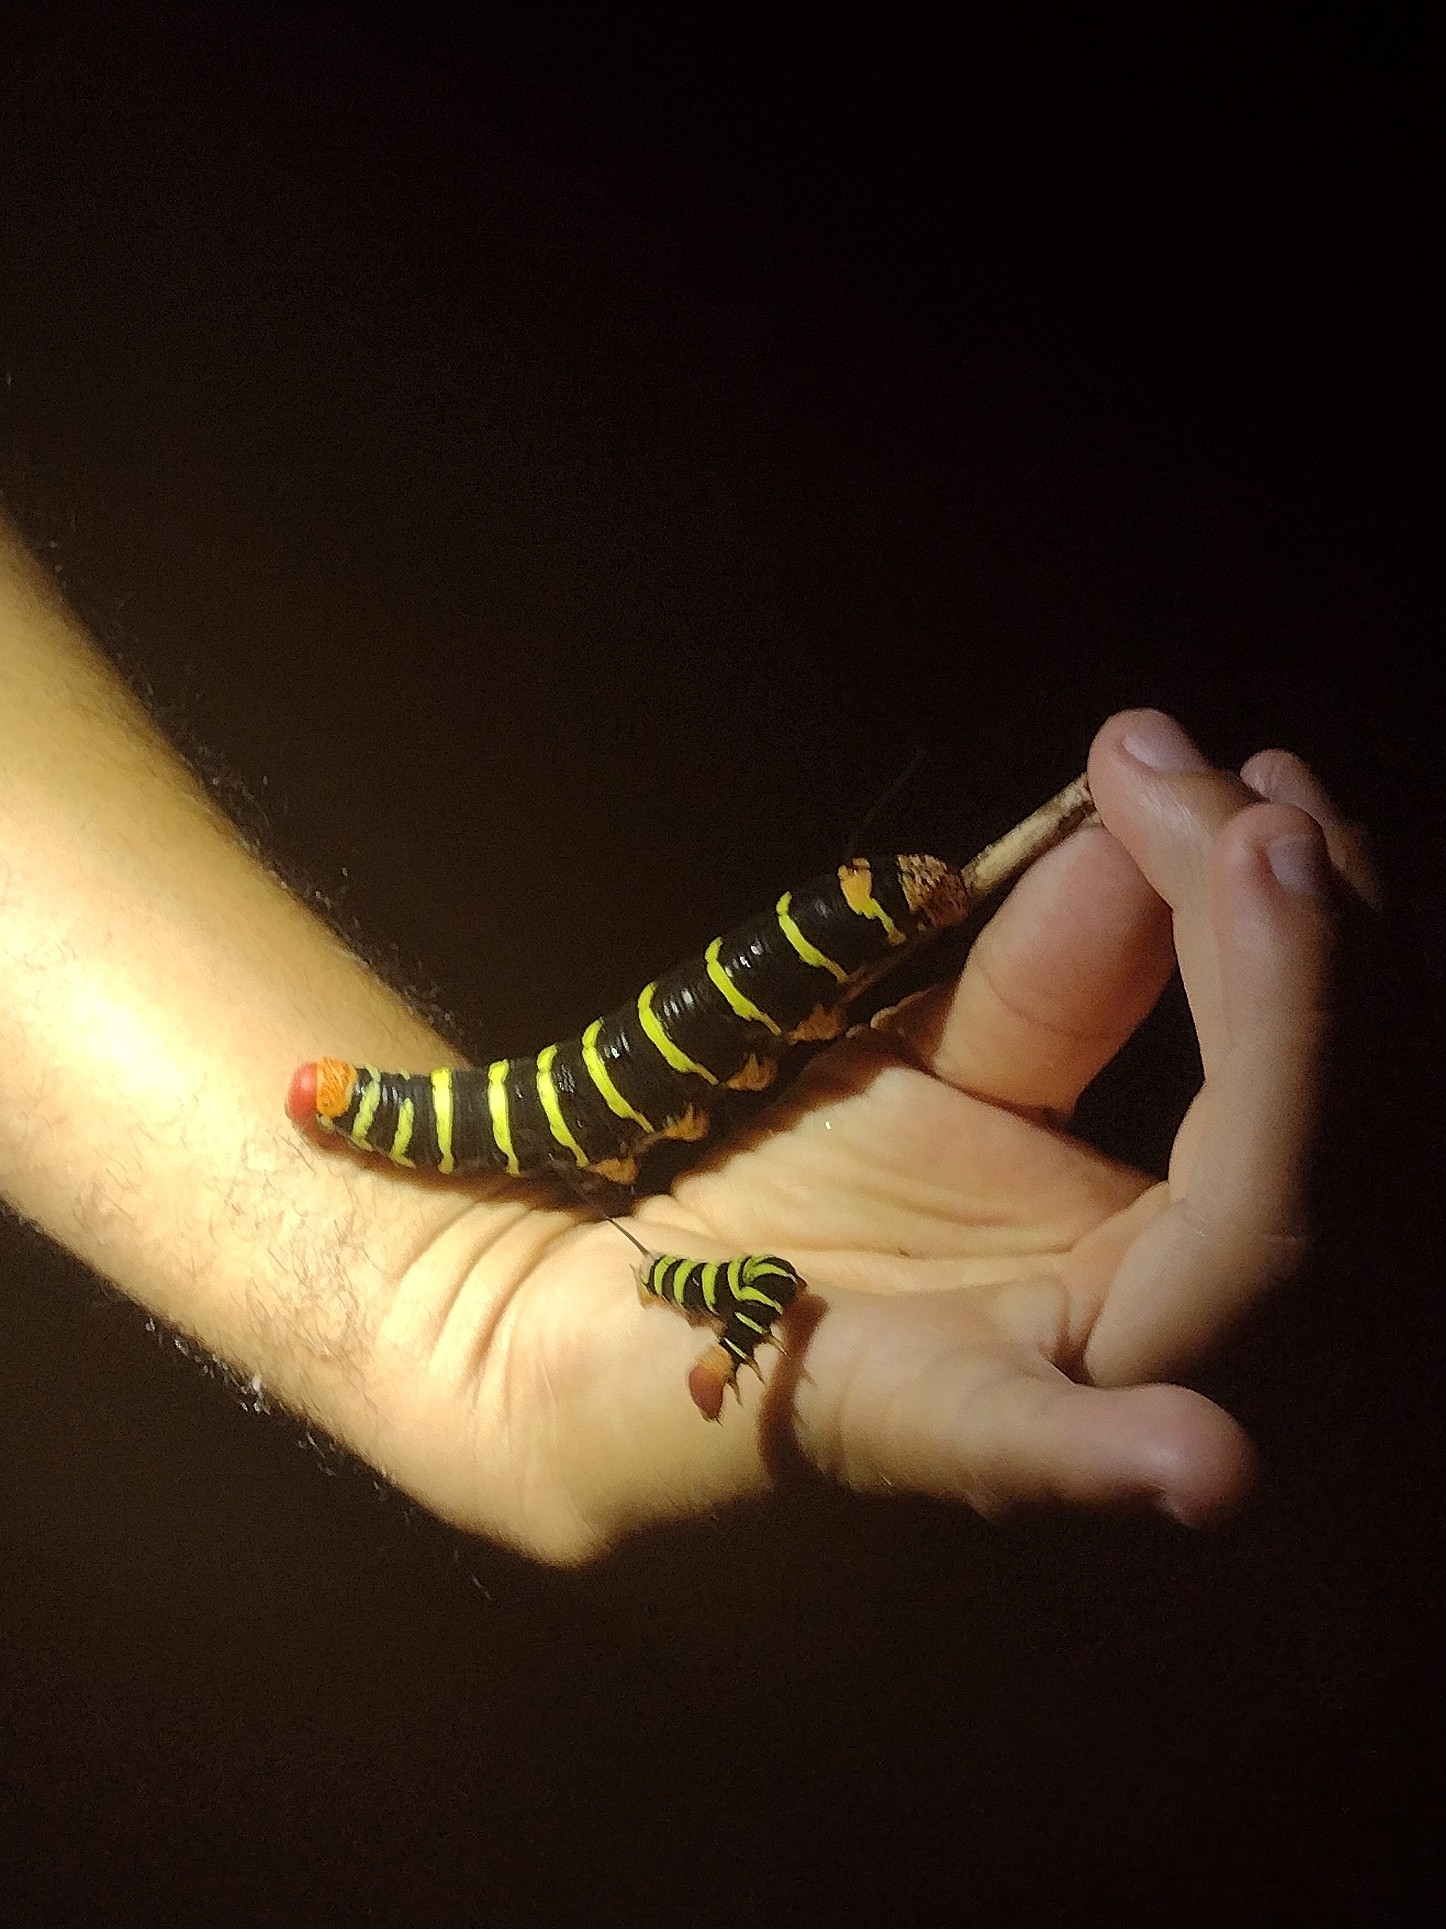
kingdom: Animalia
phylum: Arthropoda
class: Insecta
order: Lepidoptera
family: Sphingidae
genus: Pseudosphinx
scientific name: Pseudosphinx tetrio
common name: Tetrio sphinx
